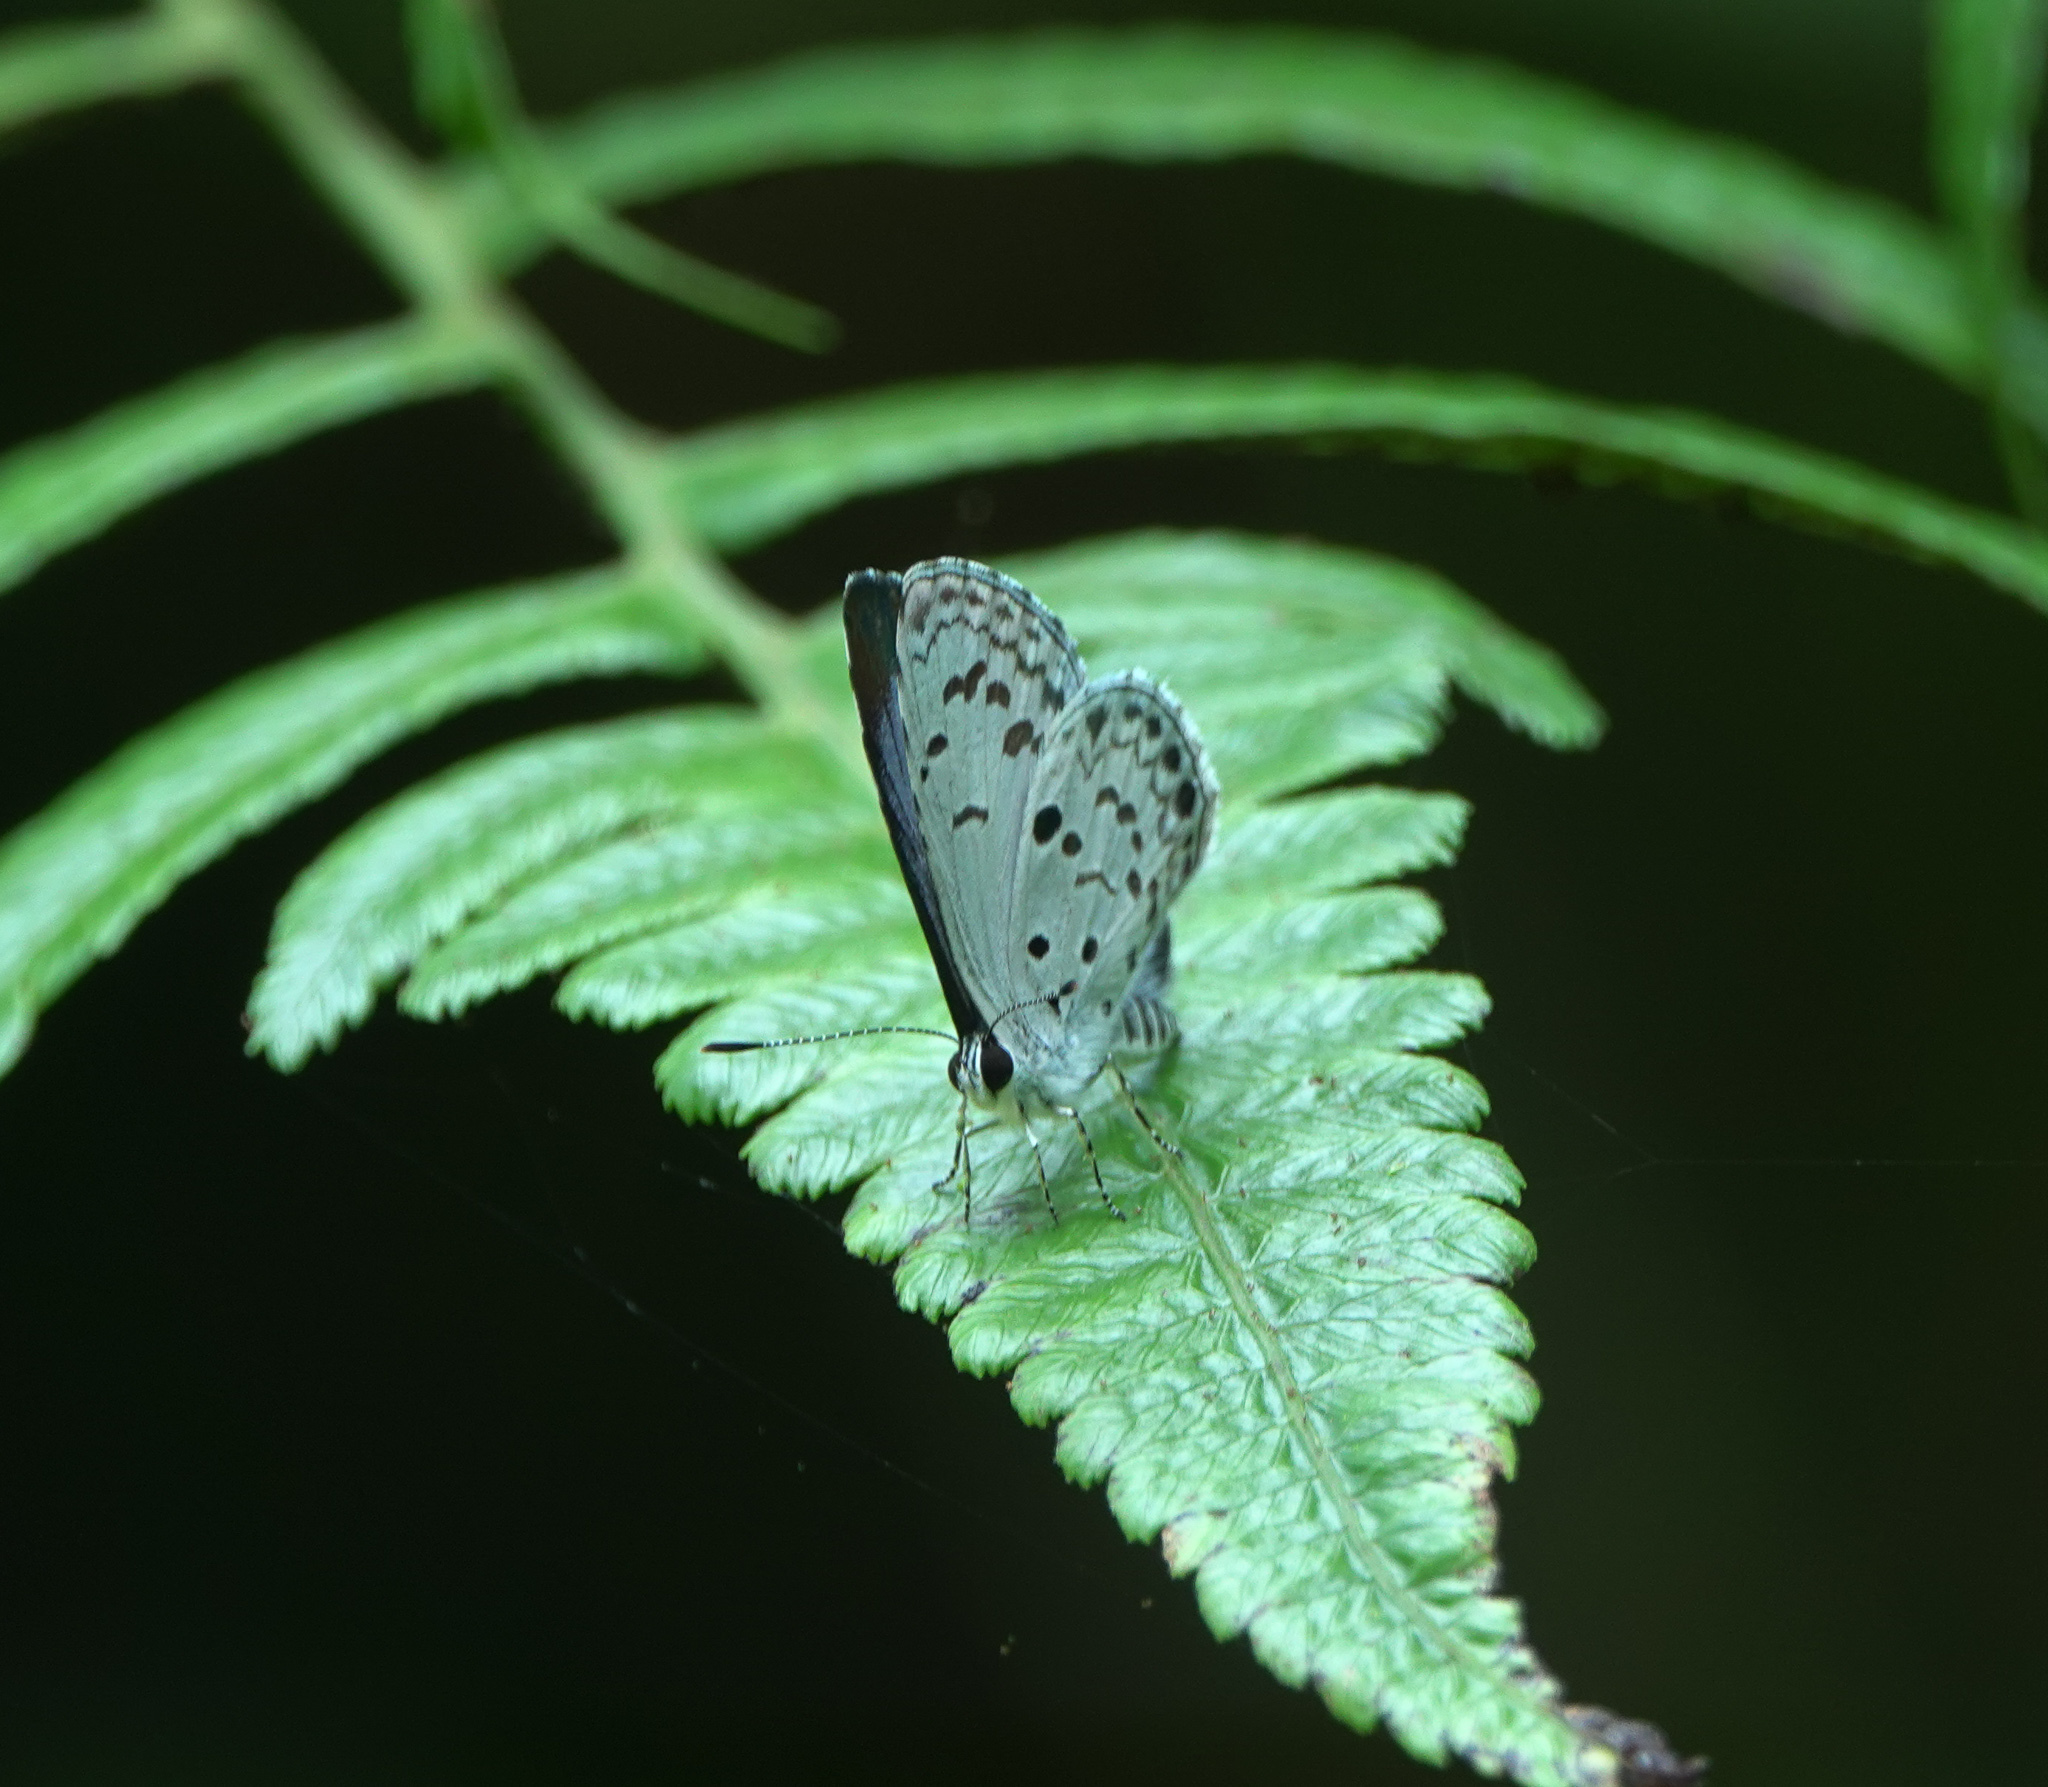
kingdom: Animalia
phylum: Arthropoda
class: Insecta
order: Lepidoptera
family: Lycaenidae
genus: Acytolepis
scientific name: Acytolepis puspa
